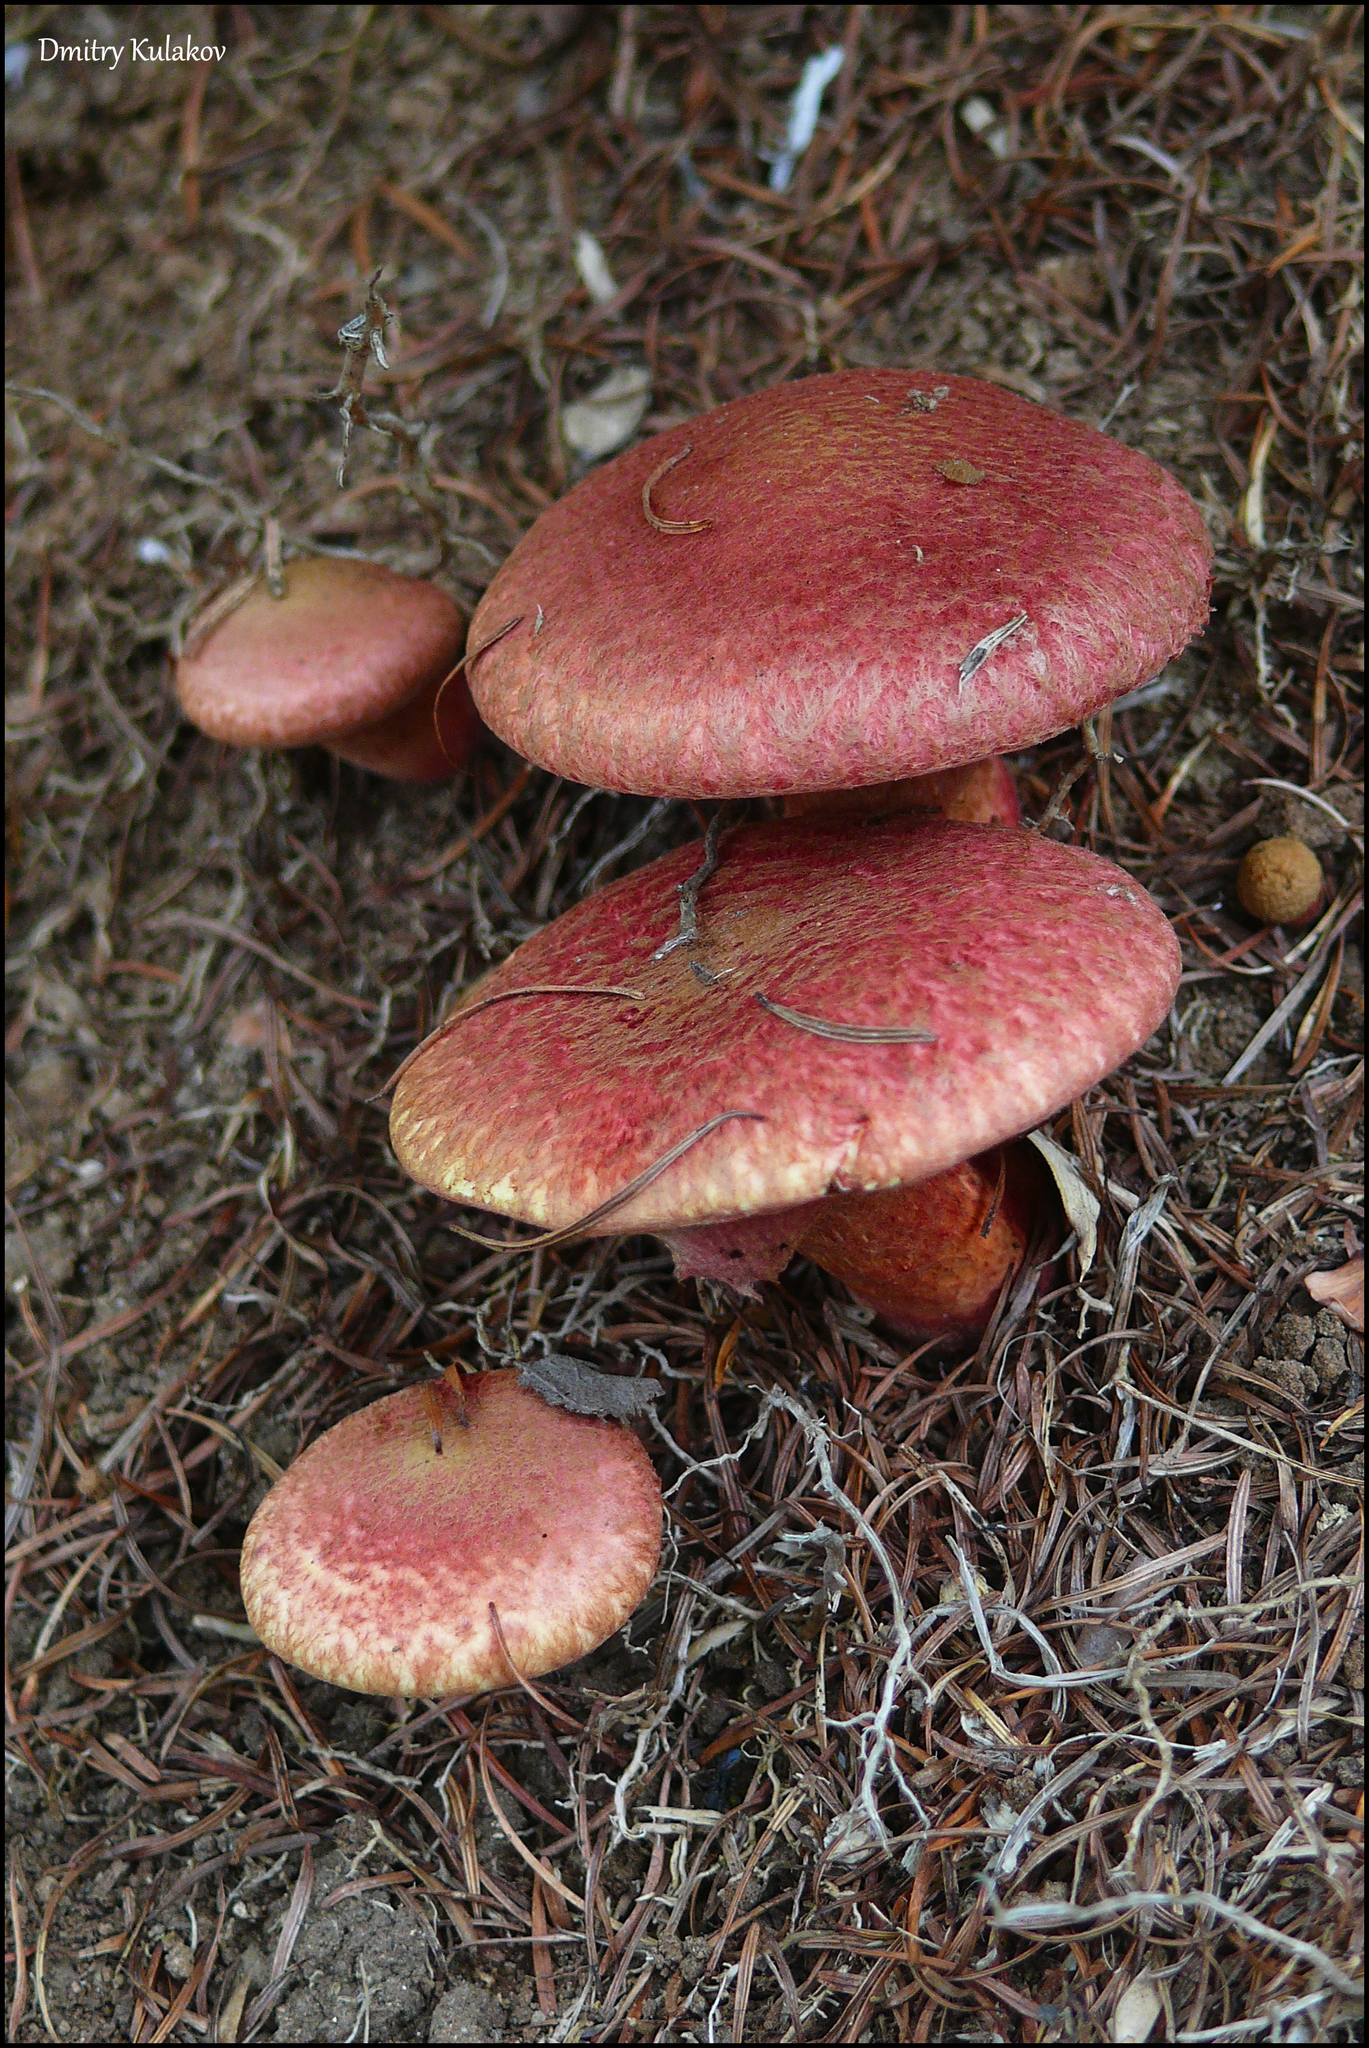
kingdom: Fungi
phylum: Basidiomycota
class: Agaricomycetes
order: Boletales
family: Suillaceae
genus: Suillus
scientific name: Suillus spraguei
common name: Painted suillus
